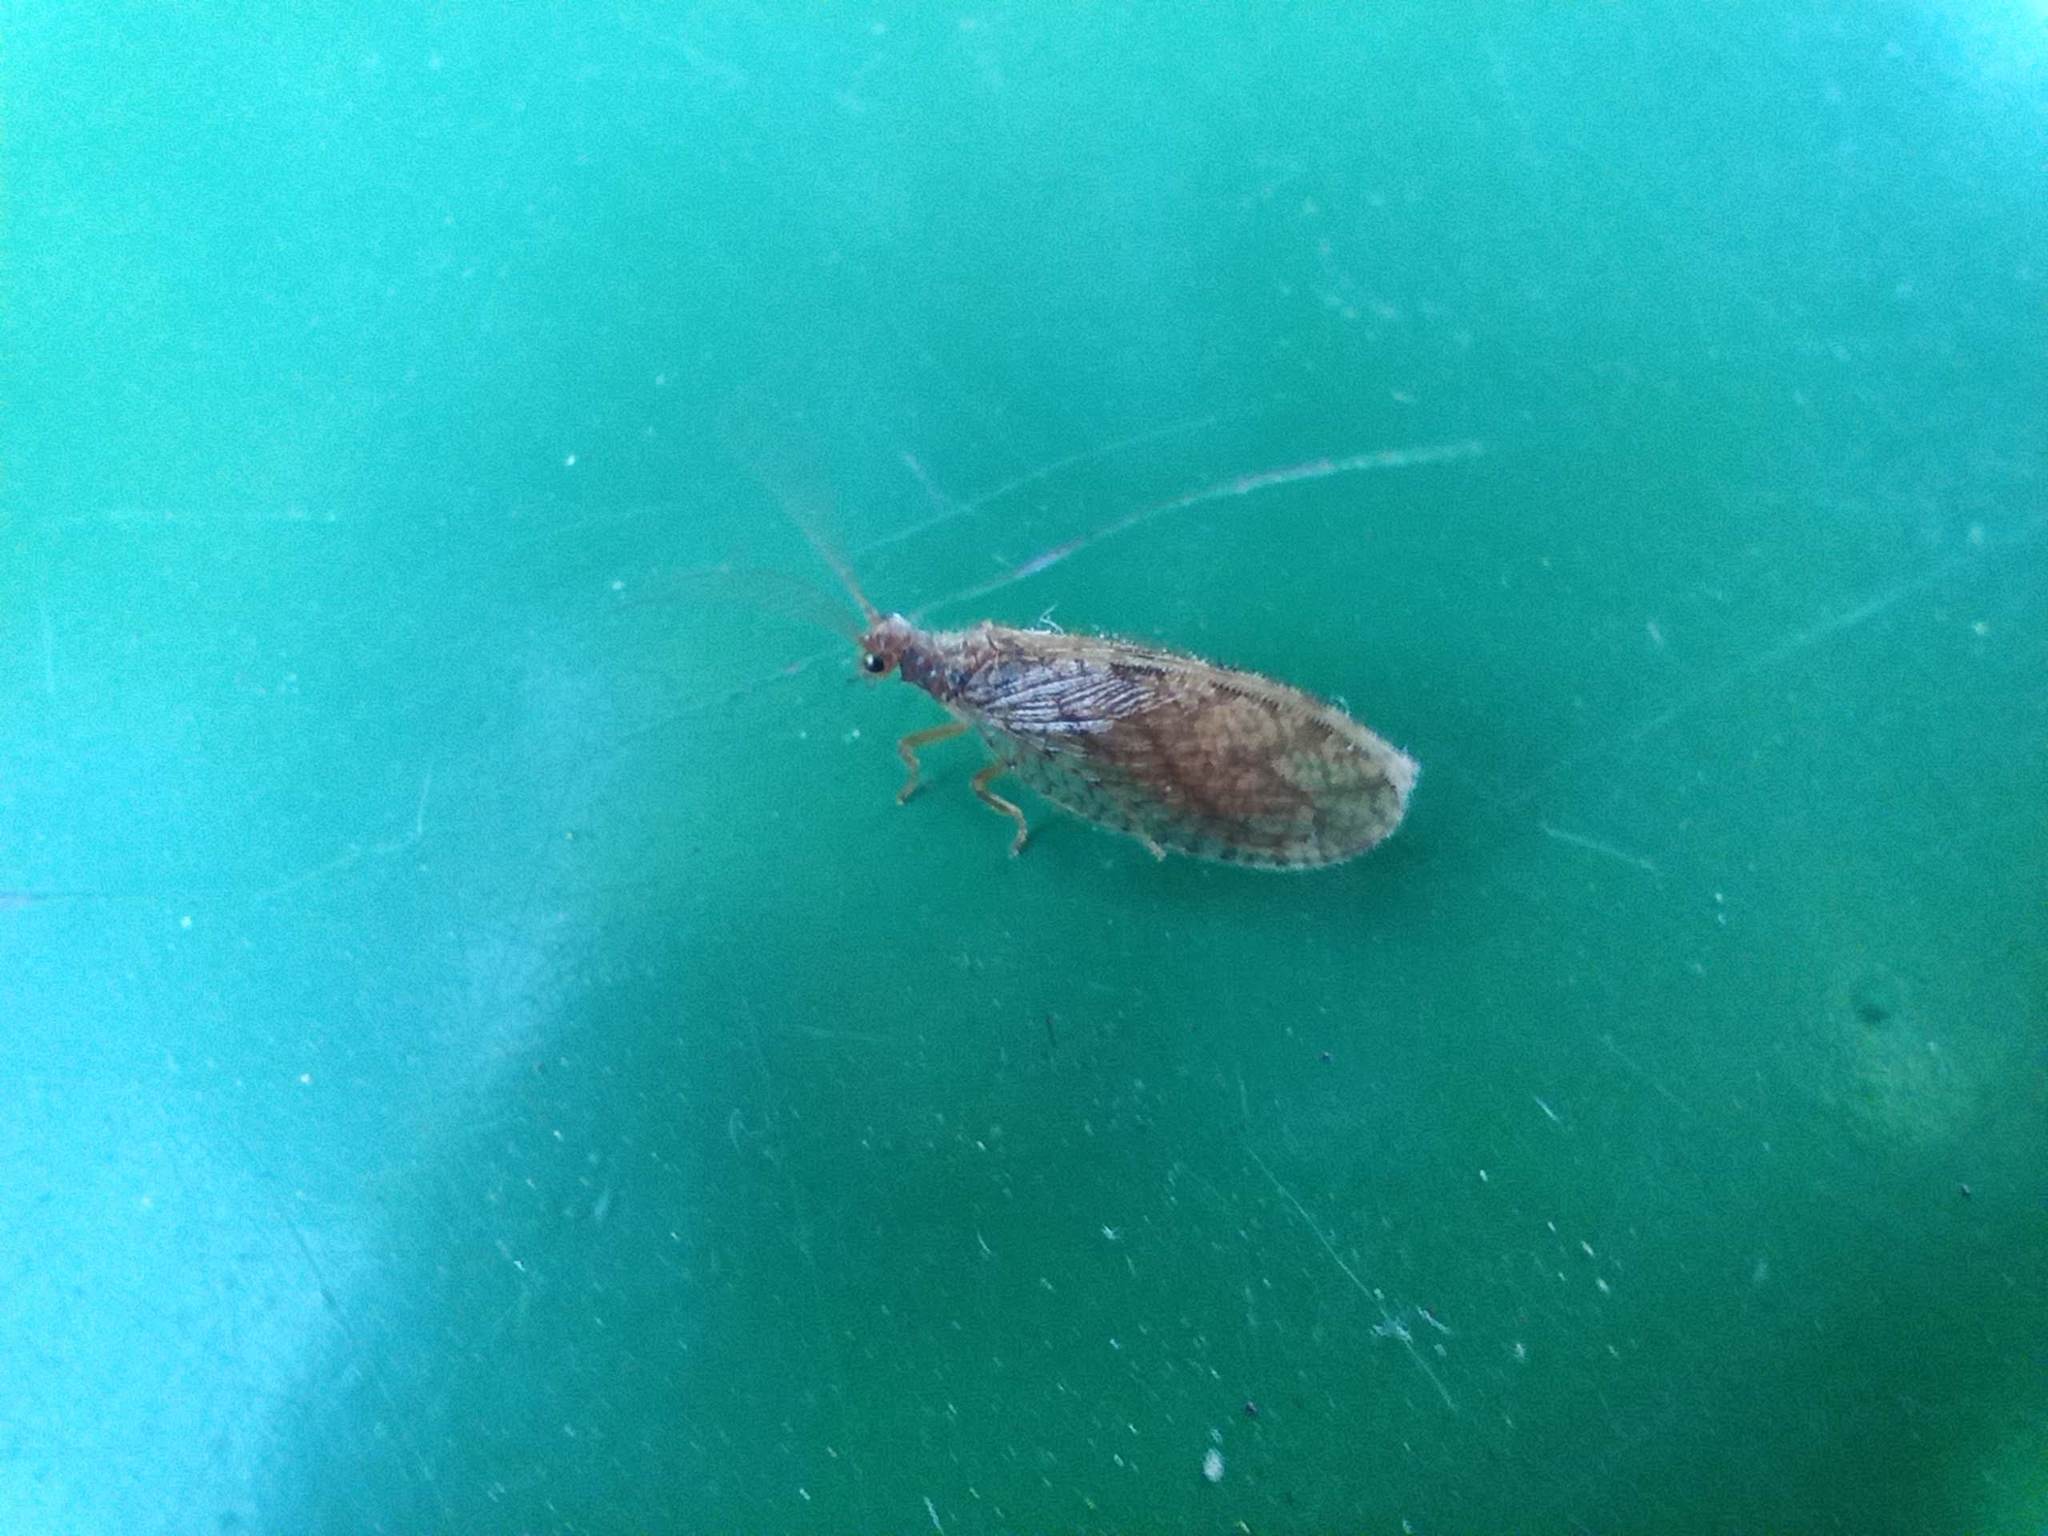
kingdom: Animalia
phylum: Arthropoda
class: Insecta
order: Neuroptera
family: Hemerobiidae
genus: Micromus
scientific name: Micromus angulatus
